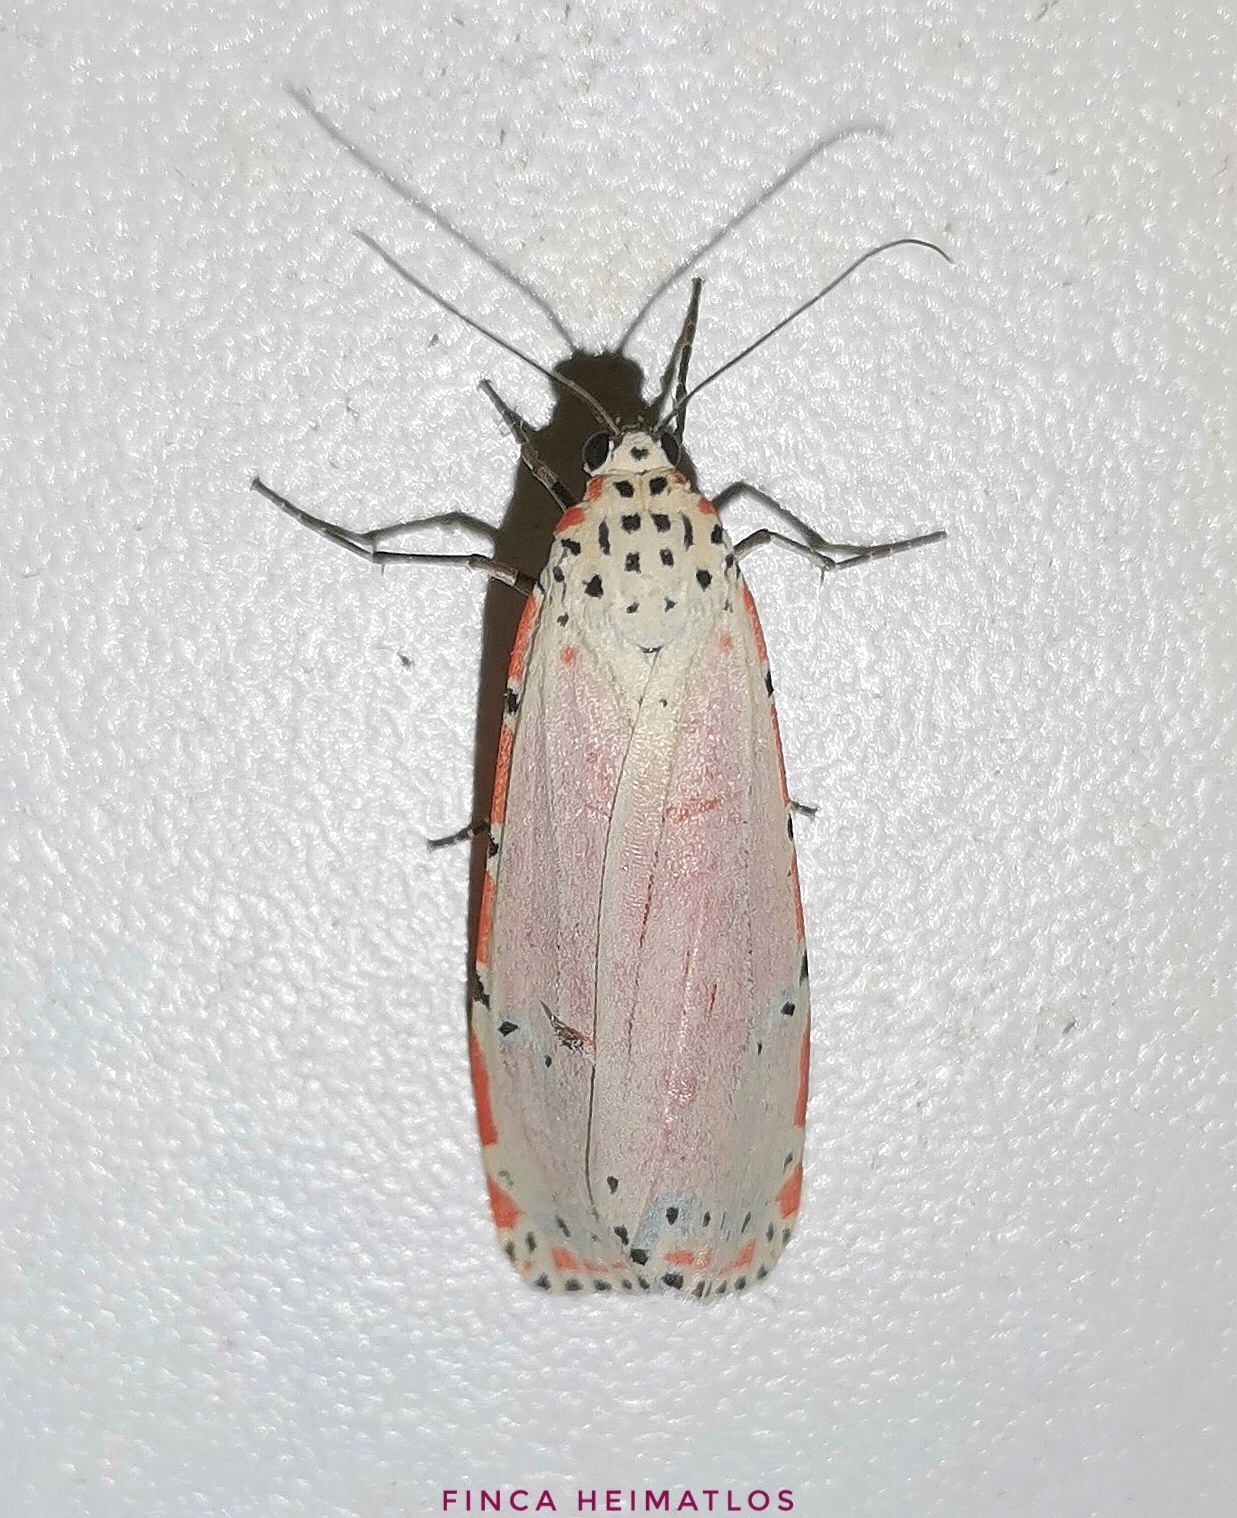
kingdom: Animalia
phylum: Arthropoda
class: Insecta
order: Lepidoptera
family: Erebidae
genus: Utetheisa
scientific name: Utetheisa ornatrix
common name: Beautiful utetheisa
